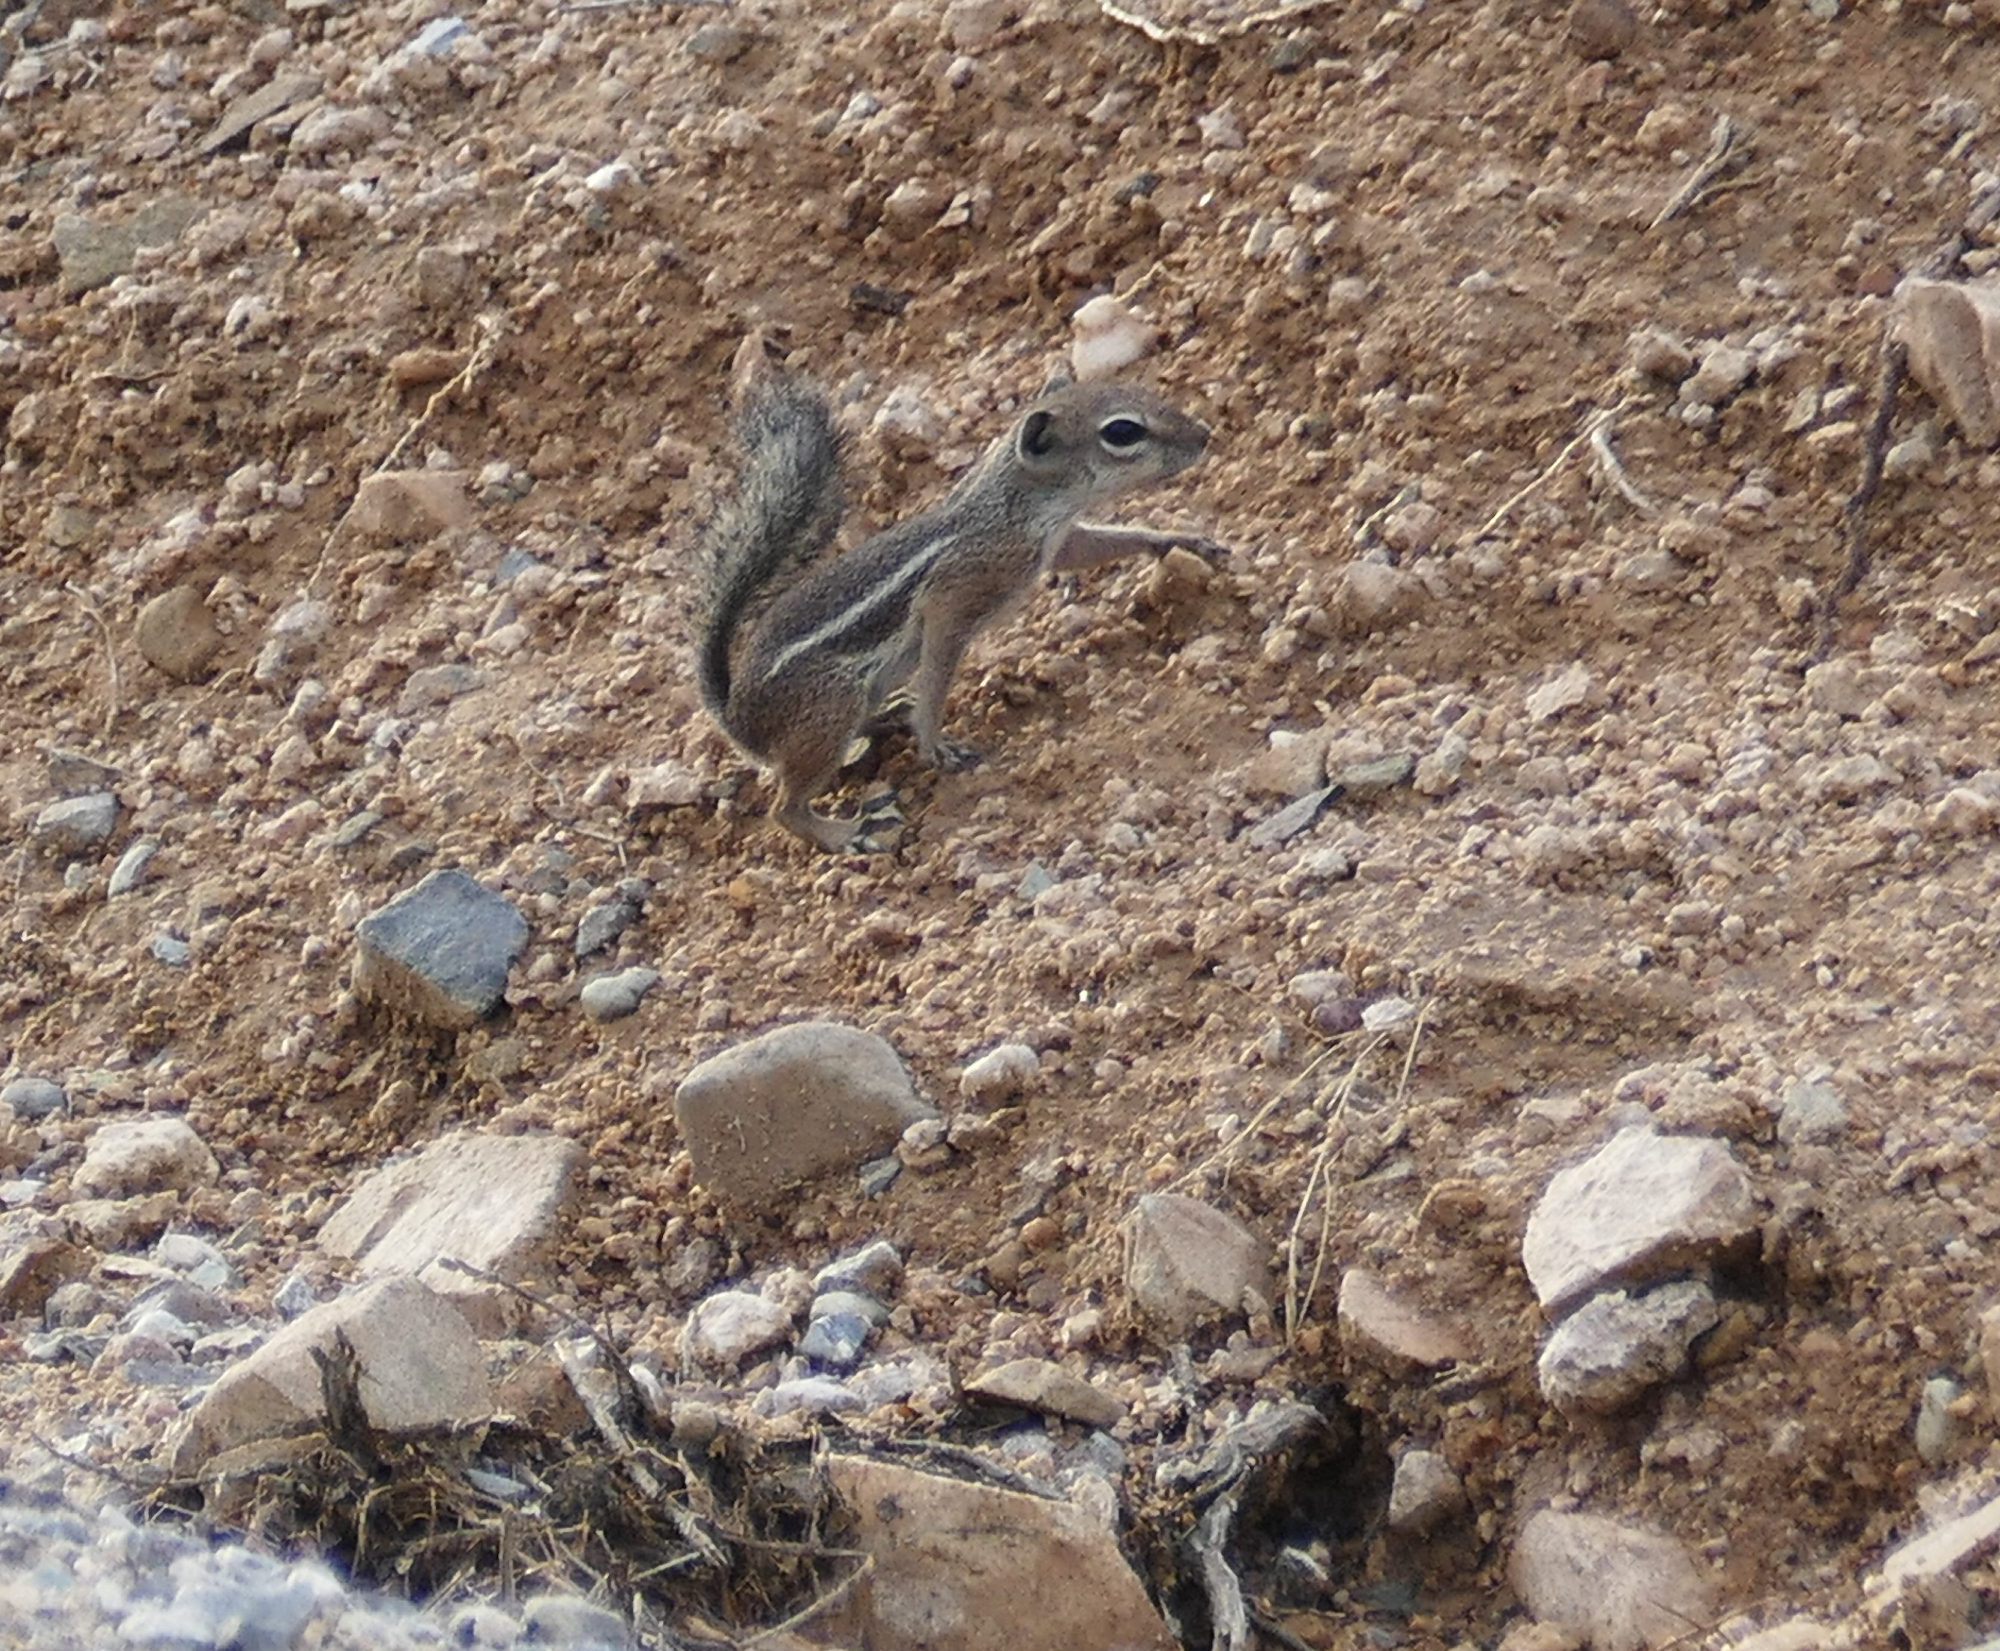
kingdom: Animalia
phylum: Chordata
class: Mammalia
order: Rodentia
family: Sciuridae
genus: Ammospermophilus
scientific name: Ammospermophilus harrisii
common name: Harris's antelope squirrel
